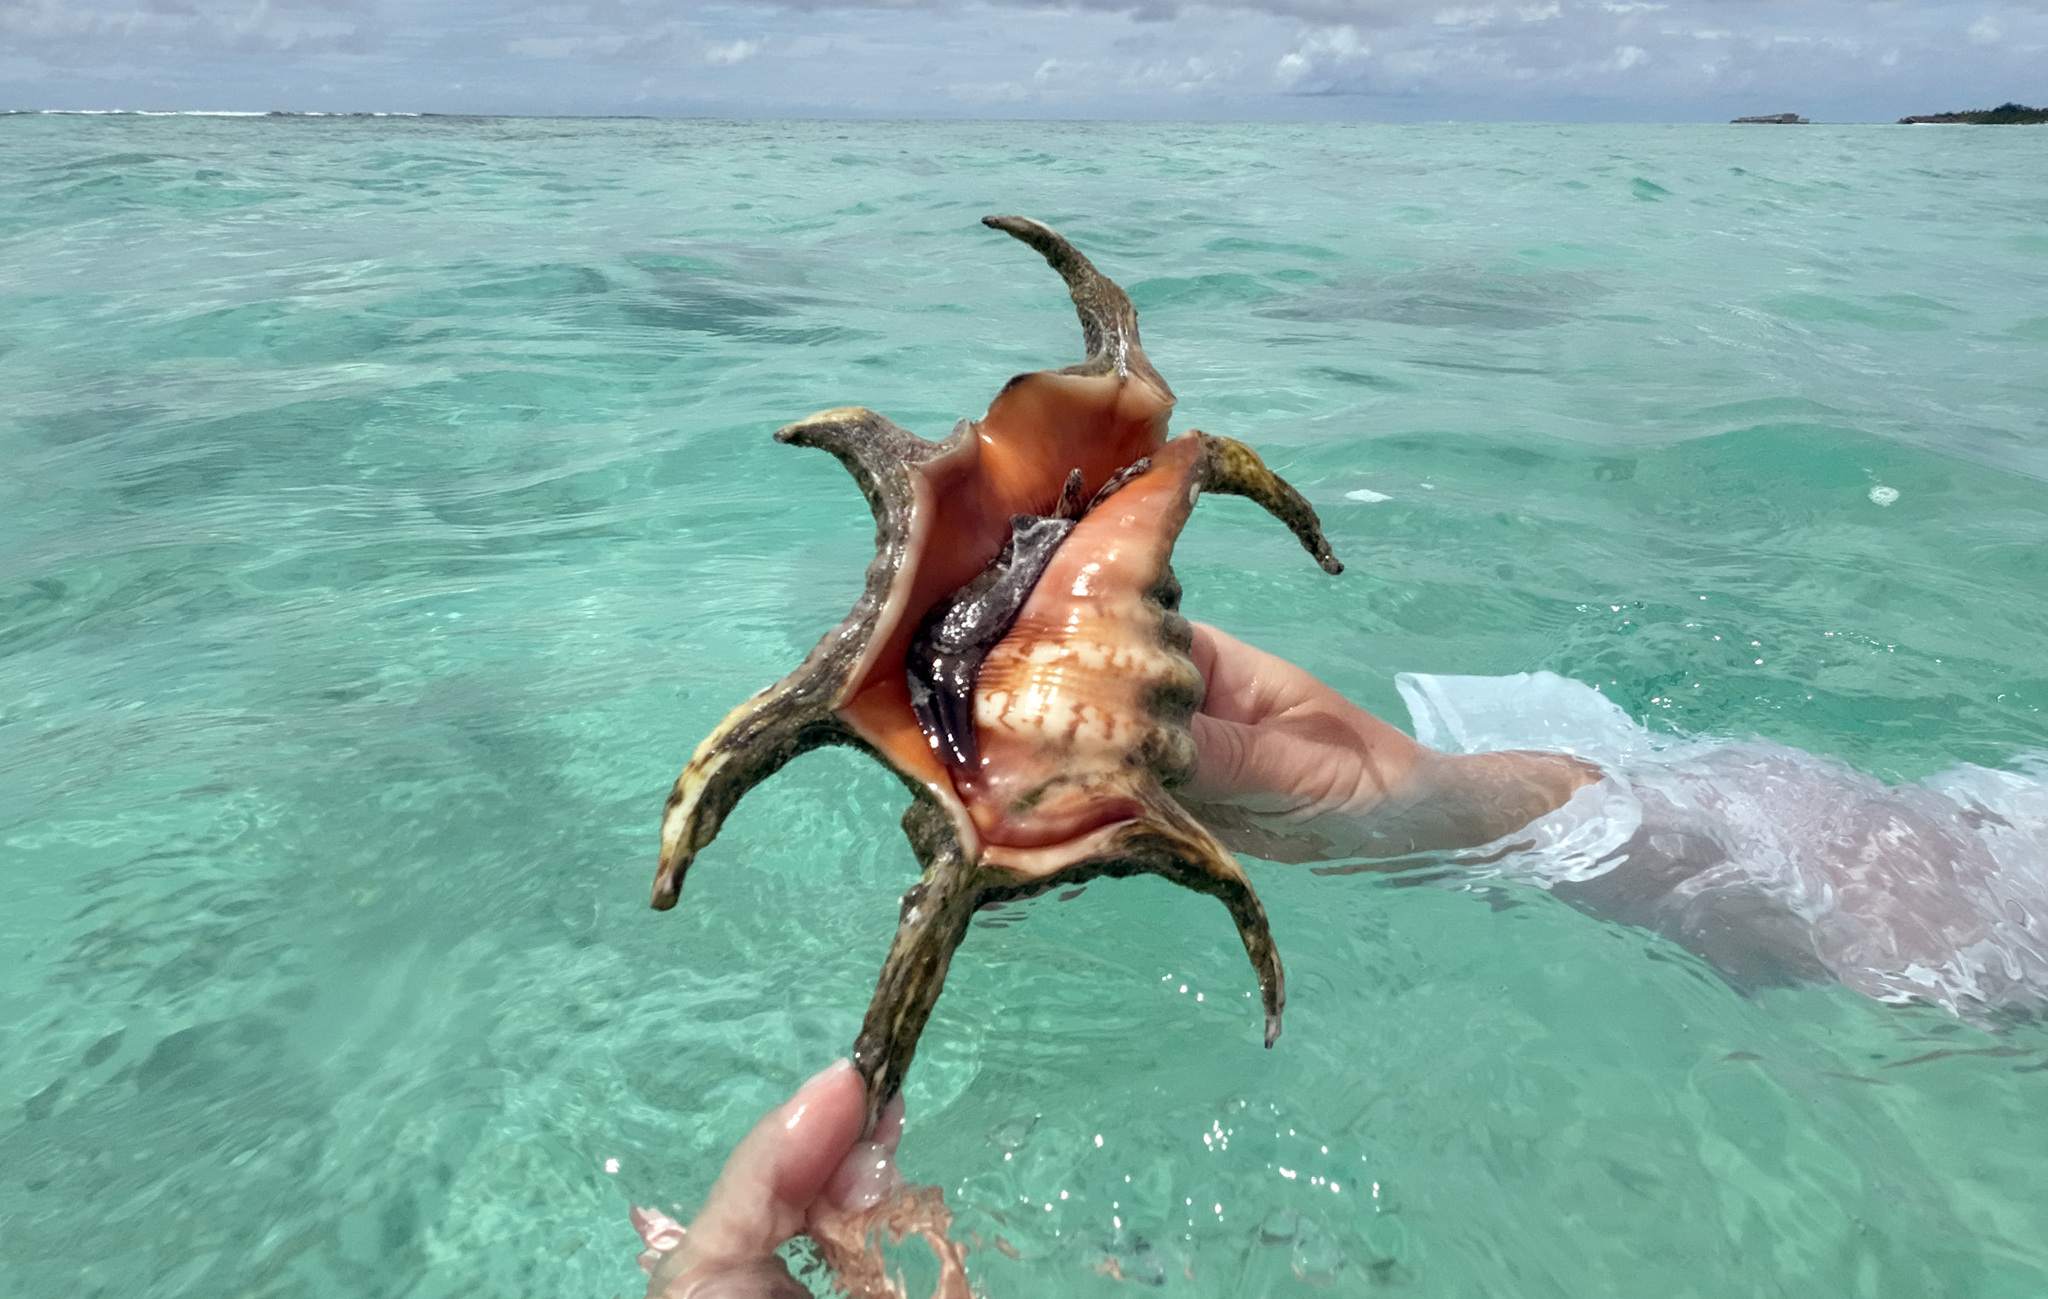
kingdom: Animalia
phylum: Mollusca
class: Gastropoda
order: Littorinimorpha
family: Strombidae
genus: Harpago
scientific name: Harpago chiragra
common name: Chiragra spider conch
